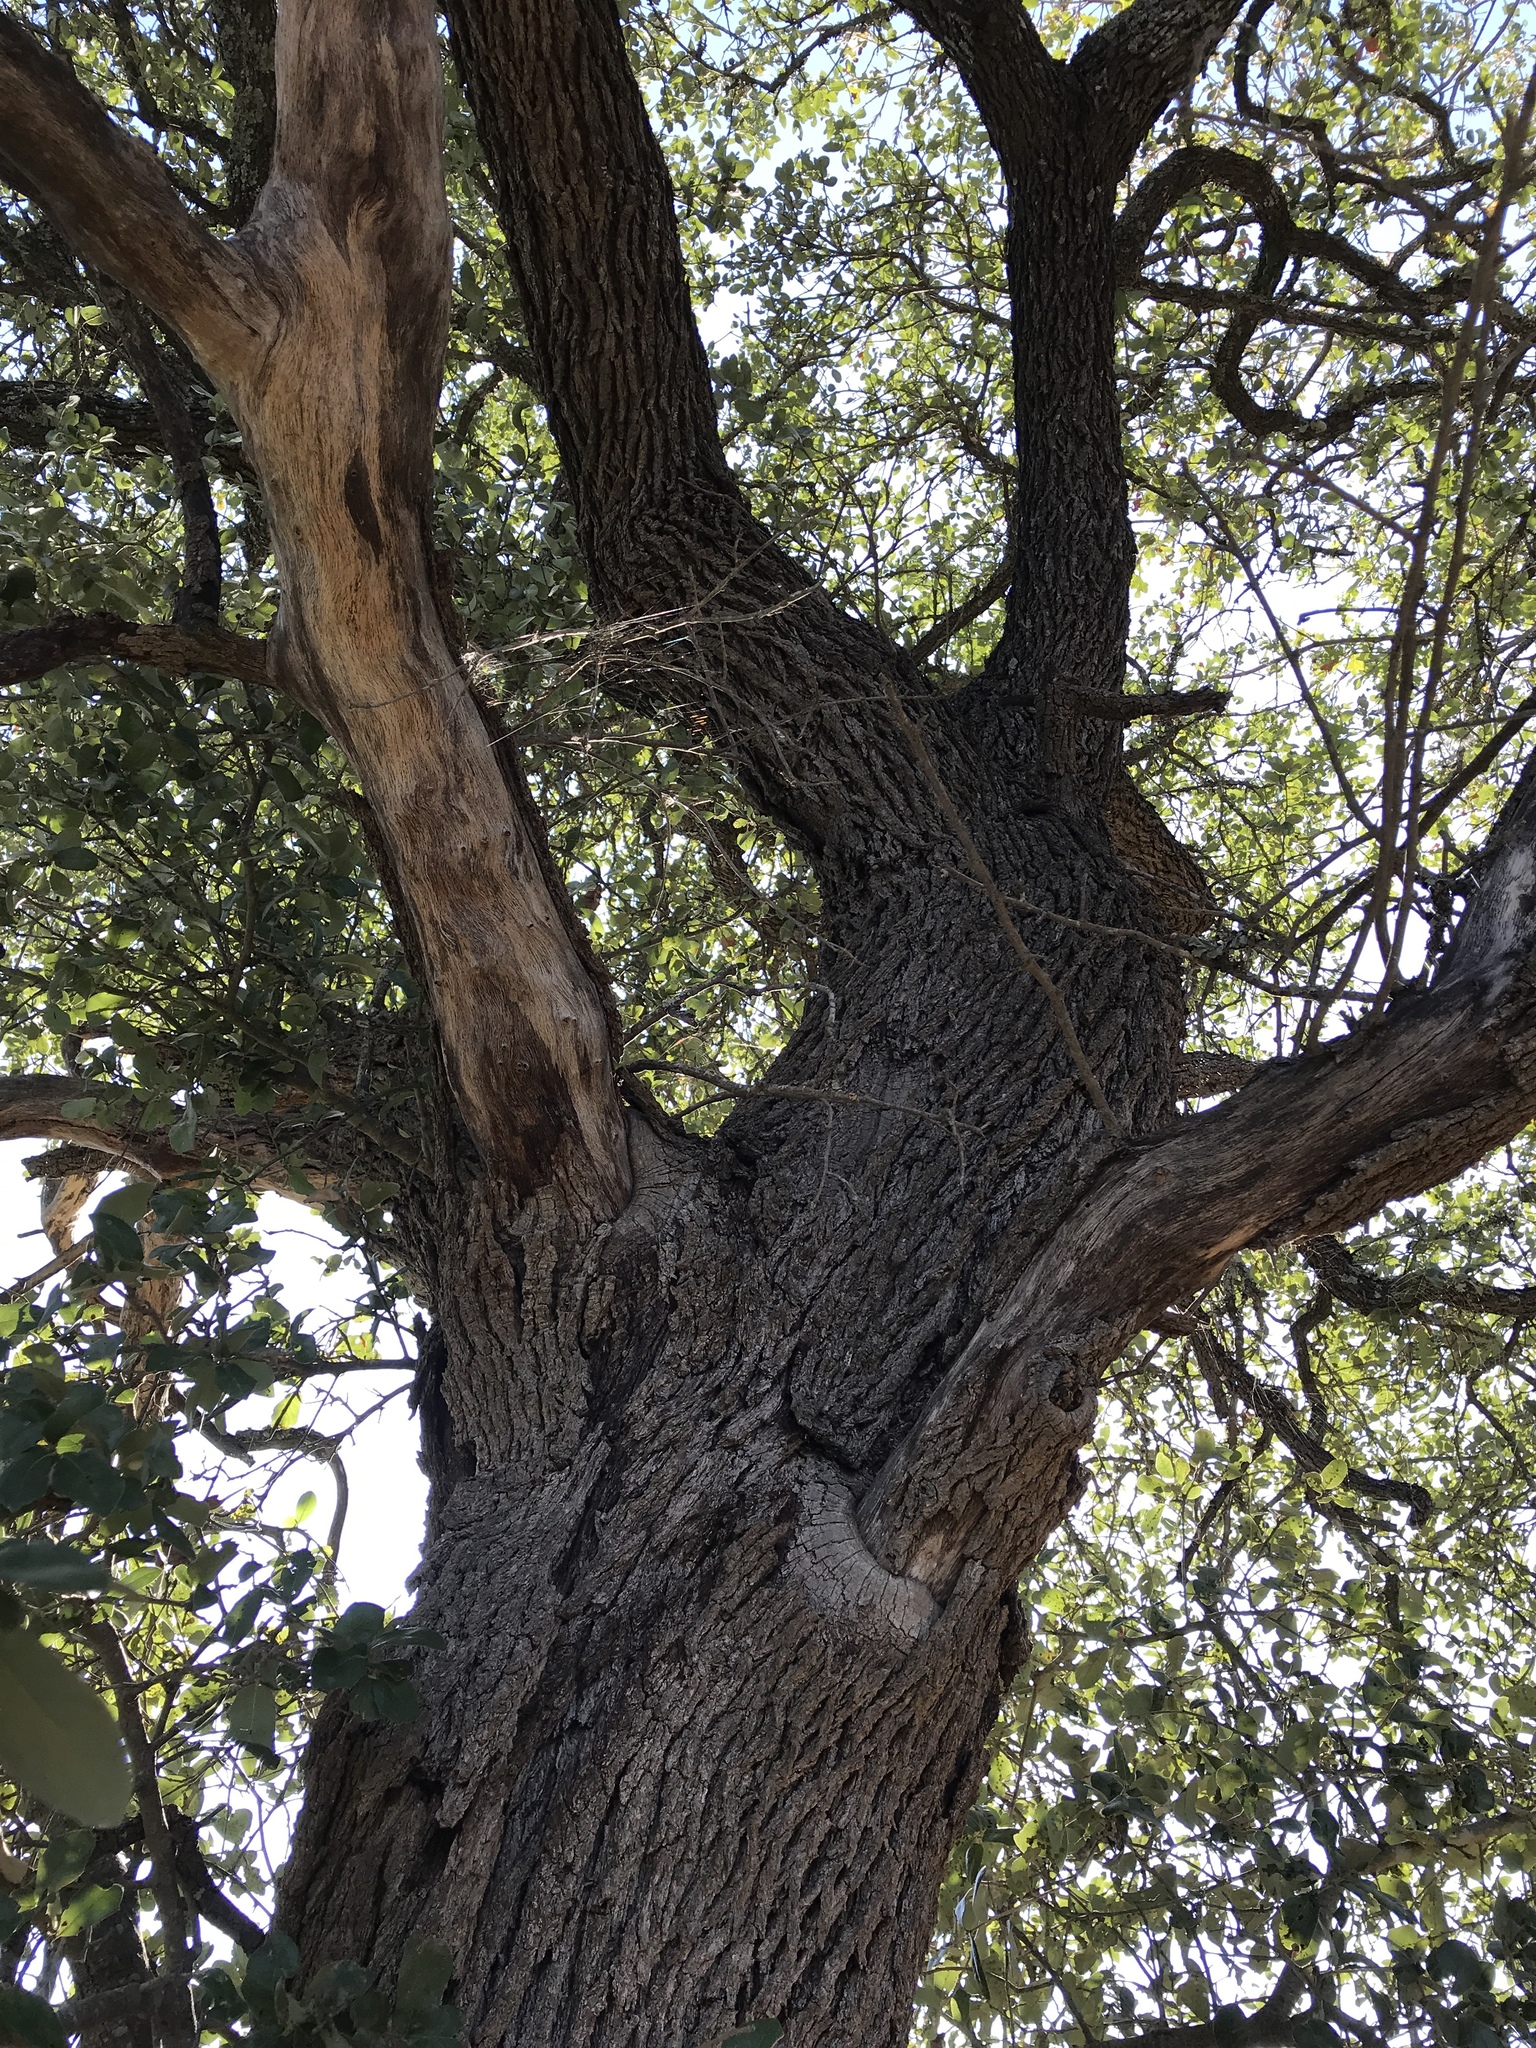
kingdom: Plantae
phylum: Tracheophyta
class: Magnoliopsida
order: Fagales
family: Fagaceae
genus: Quercus
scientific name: Quercus fusiformis
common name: Texas live oak
